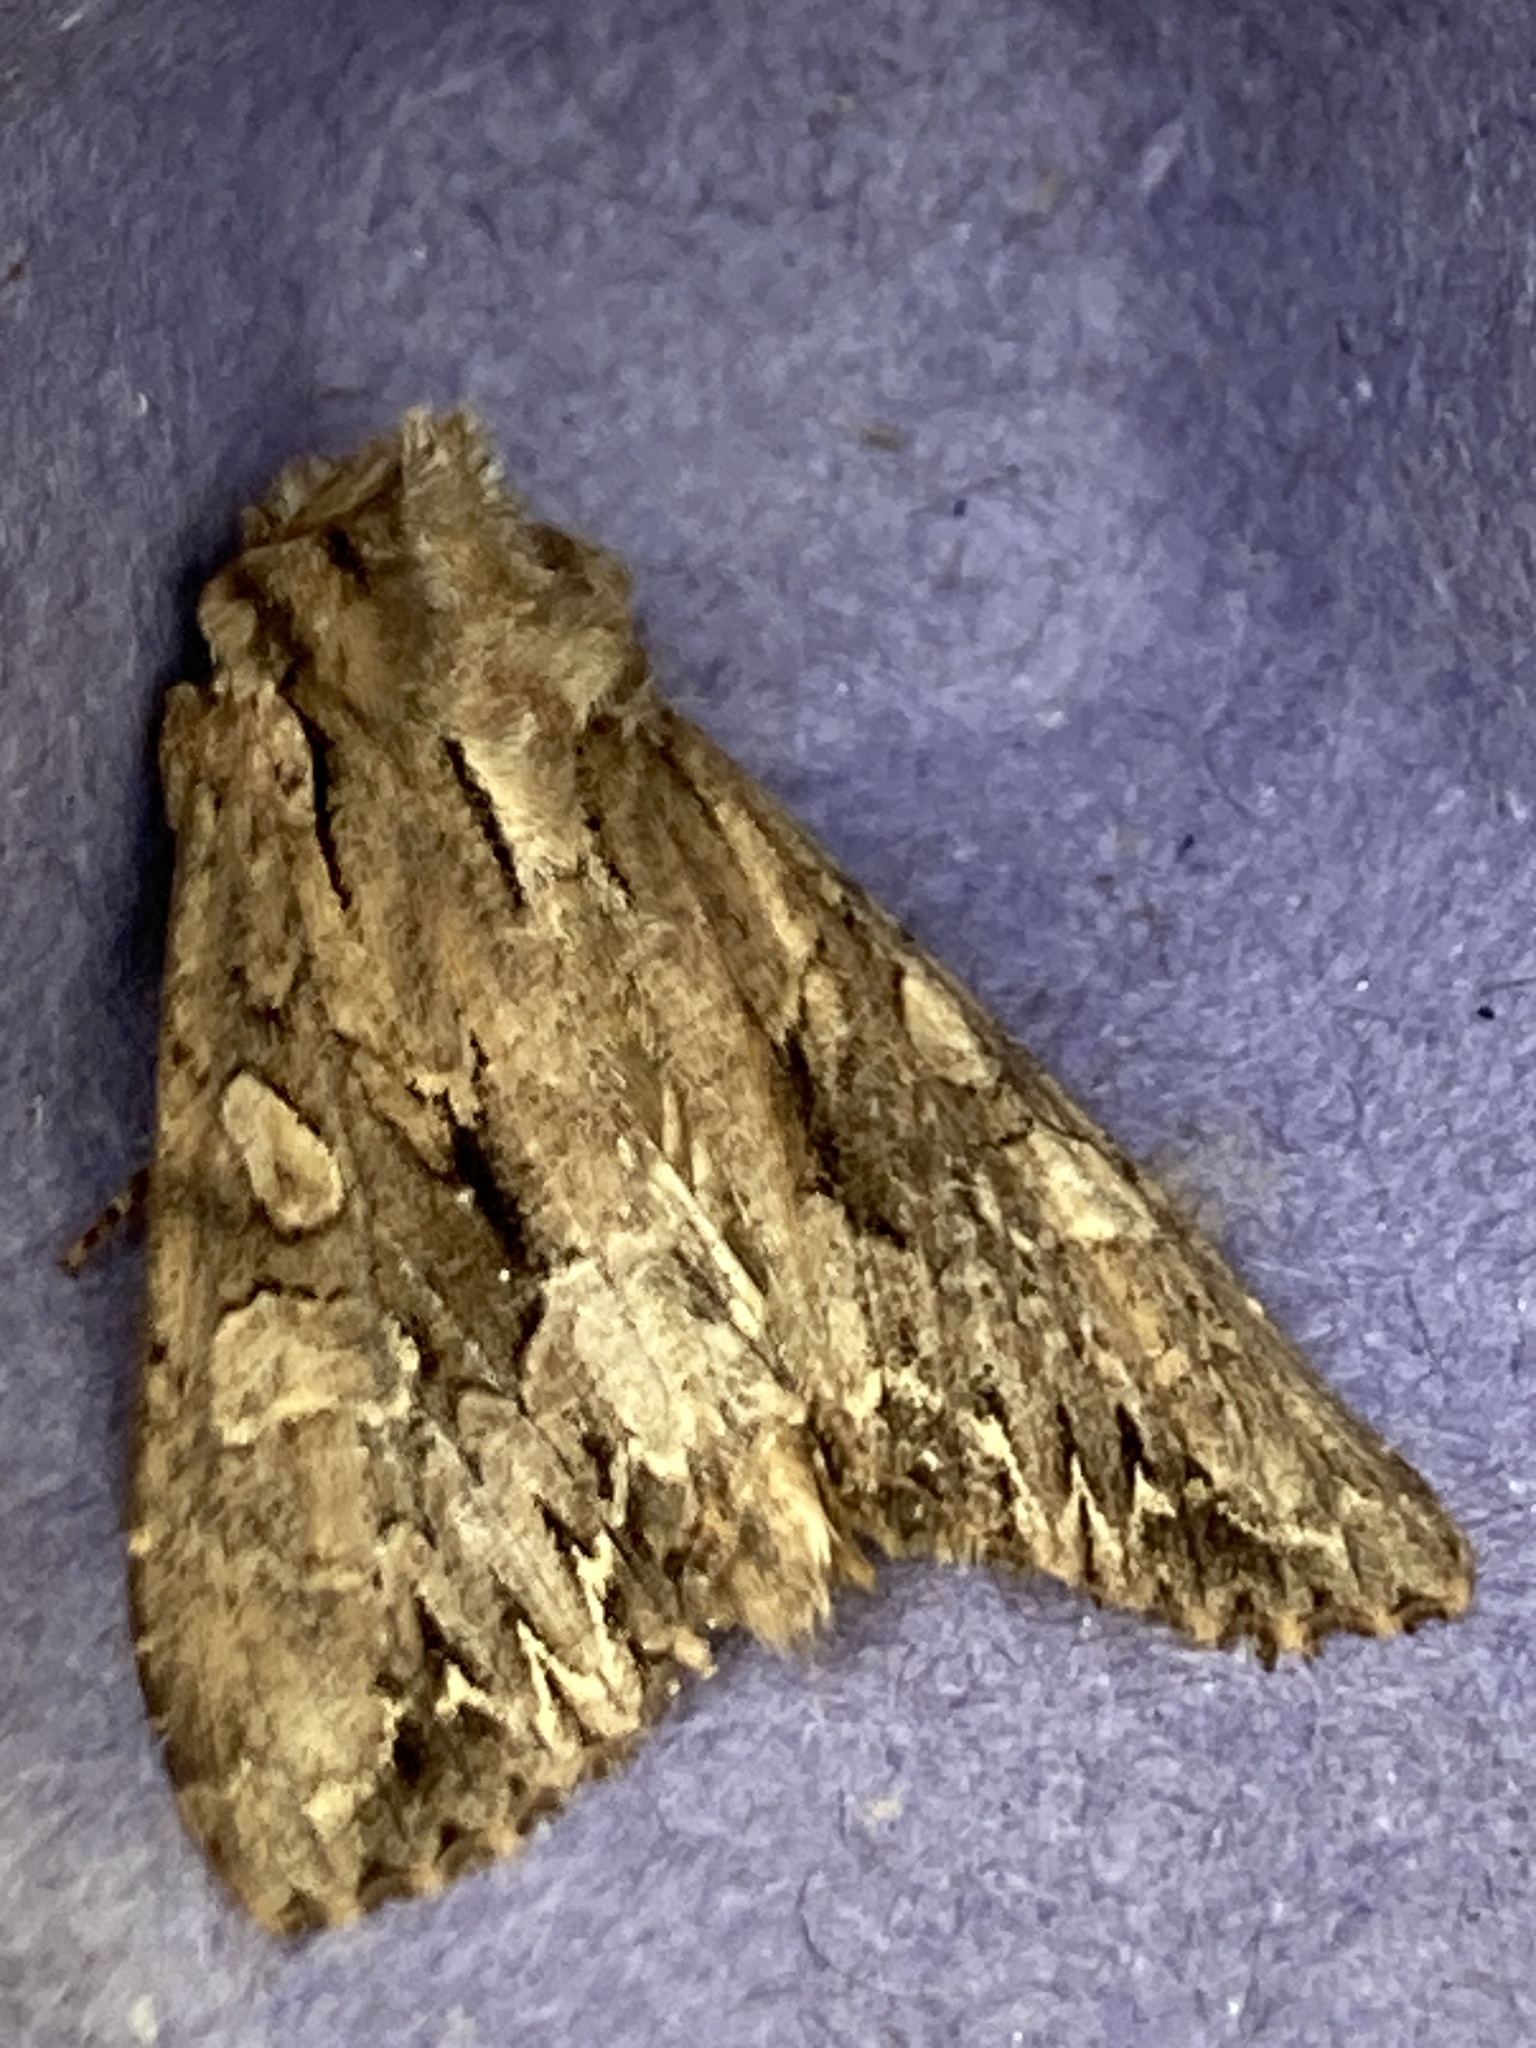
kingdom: Animalia
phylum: Arthropoda
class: Insecta
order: Lepidoptera
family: Noctuidae
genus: Apamea
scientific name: Apamea monoglypha
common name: Dark arches
